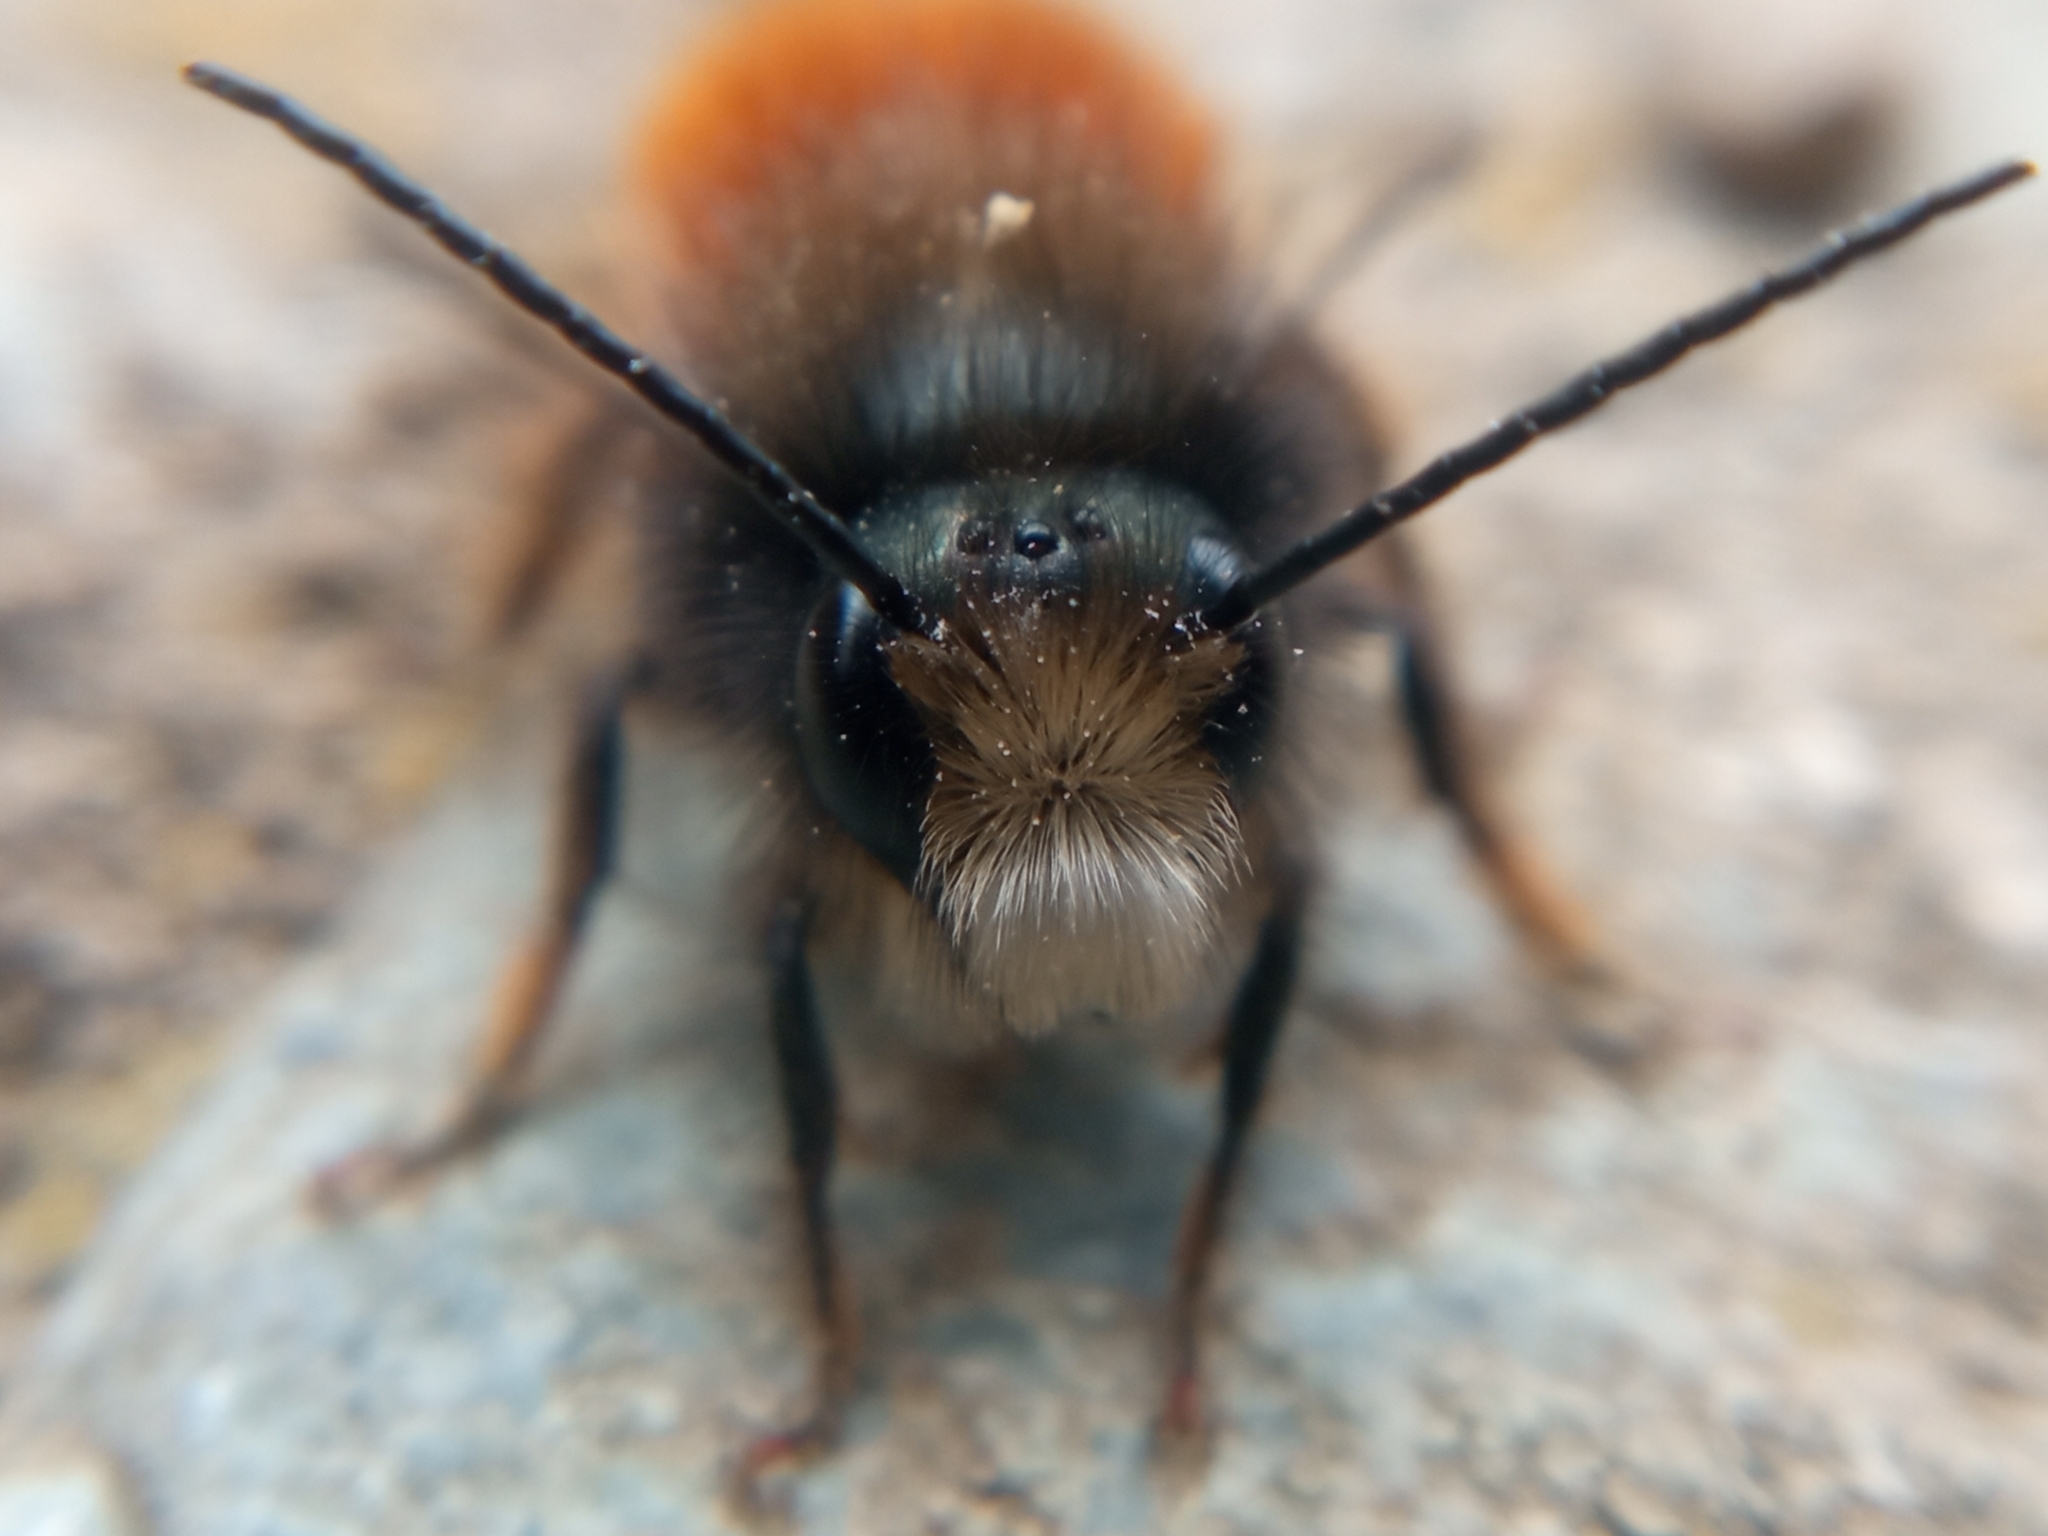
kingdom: Animalia
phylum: Arthropoda
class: Insecta
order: Hymenoptera
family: Megachilidae
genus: Osmia
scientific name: Osmia cornuta
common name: Mason bee
